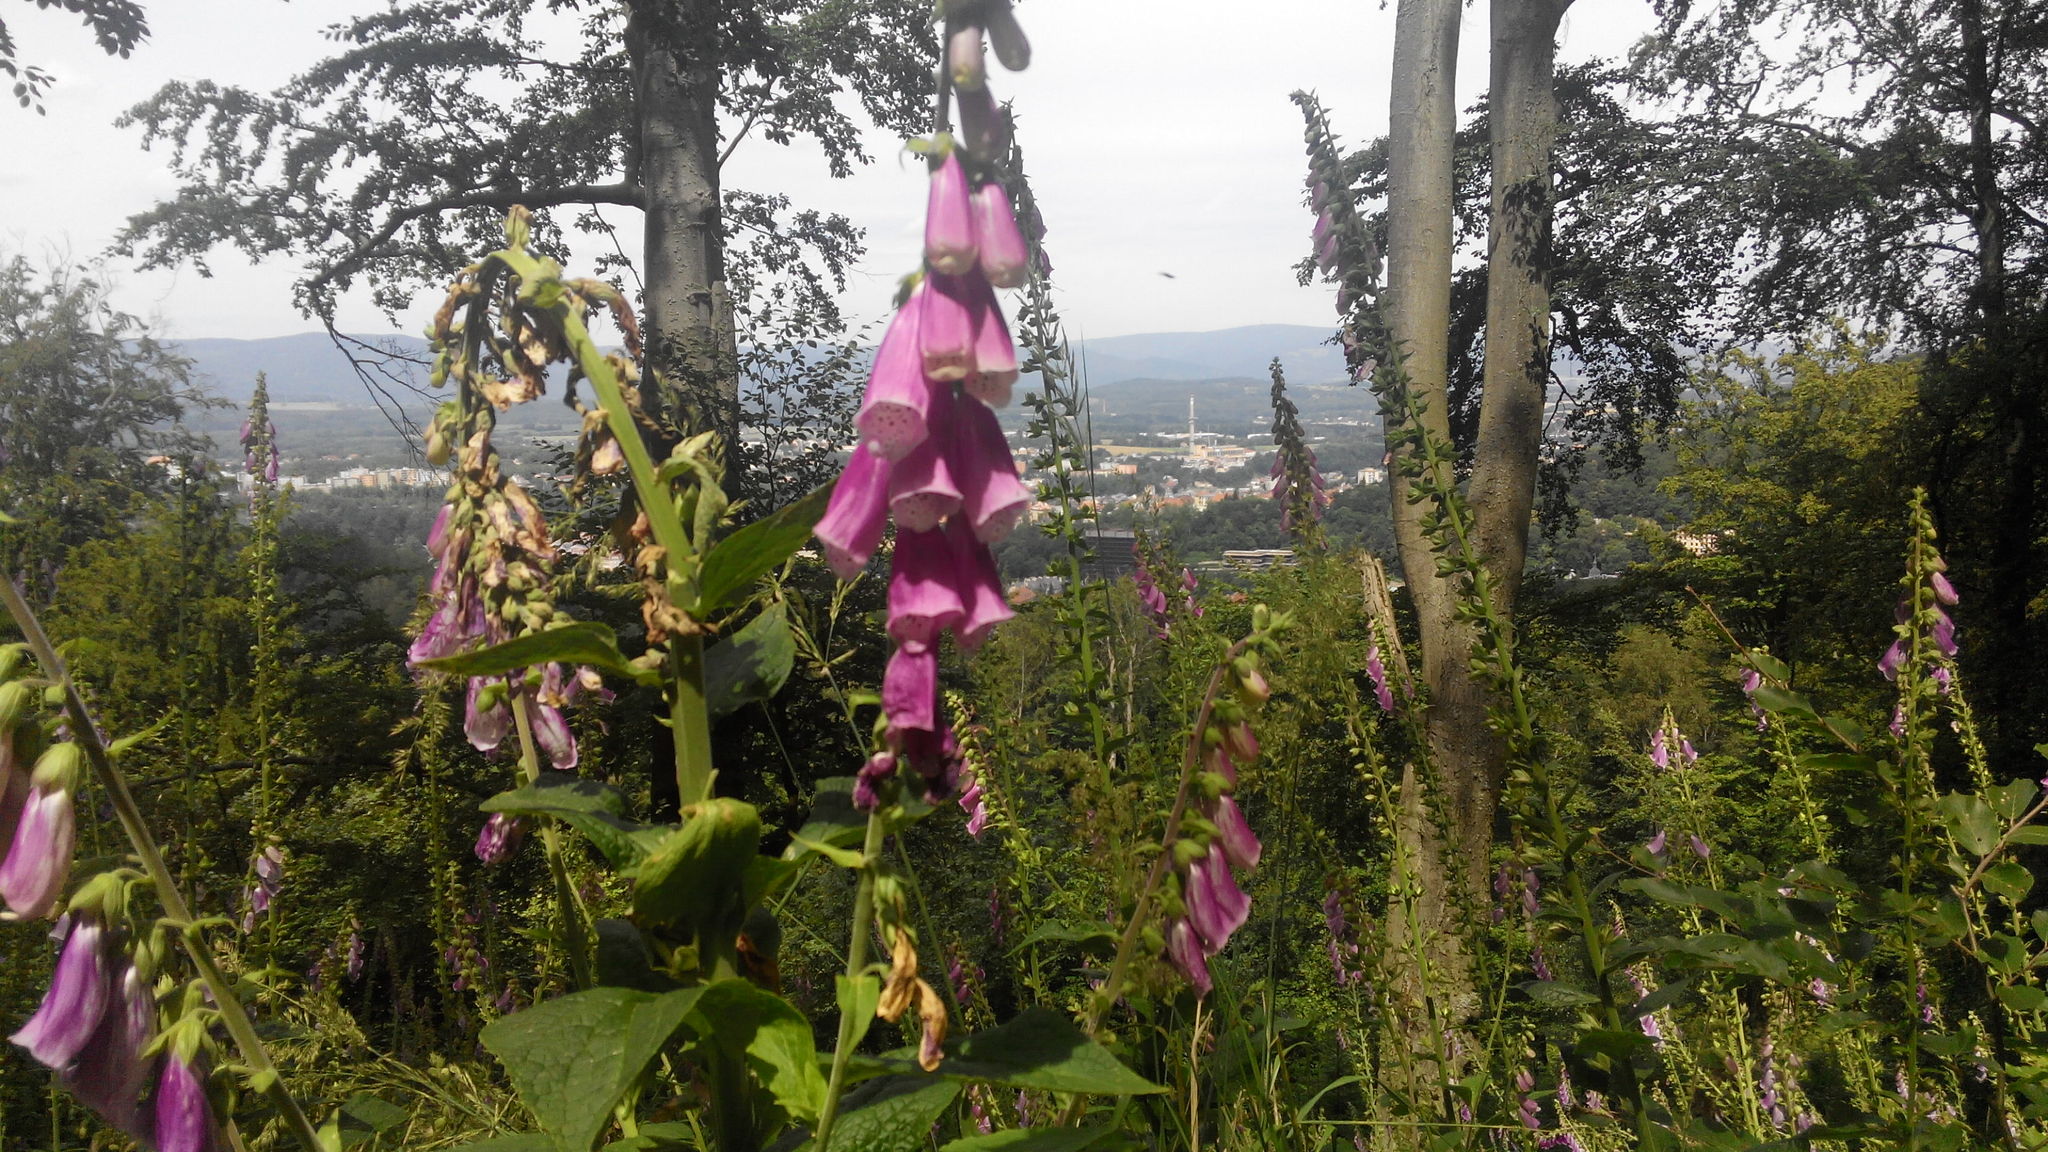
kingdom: Plantae
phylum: Tracheophyta
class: Magnoliopsida
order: Lamiales
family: Plantaginaceae
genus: Digitalis
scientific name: Digitalis purpurea
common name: Foxglove
